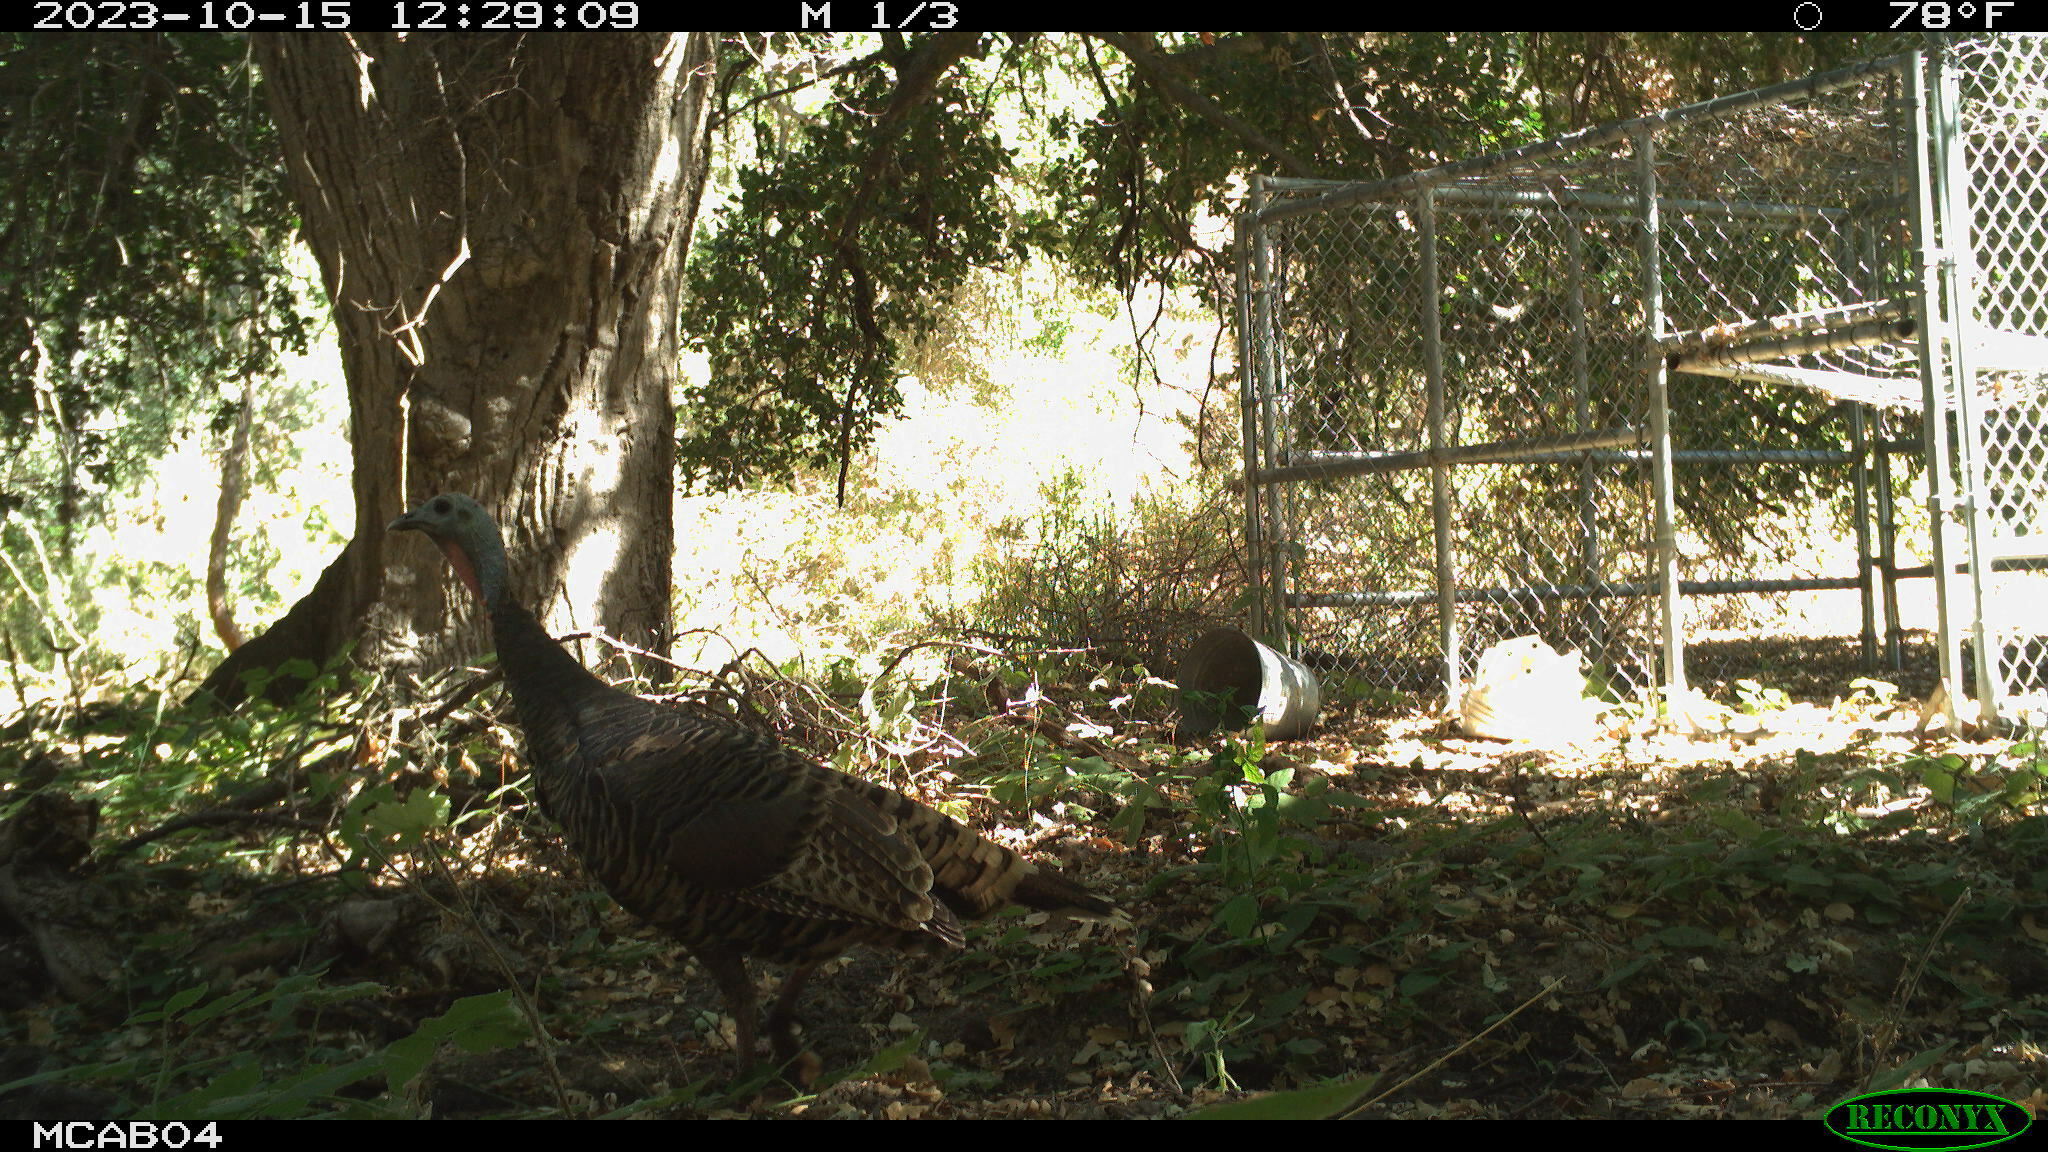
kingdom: Animalia
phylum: Chordata
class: Aves
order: Galliformes
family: Phasianidae
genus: Meleagris
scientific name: Meleagris gallopavo
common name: Wild turkey
